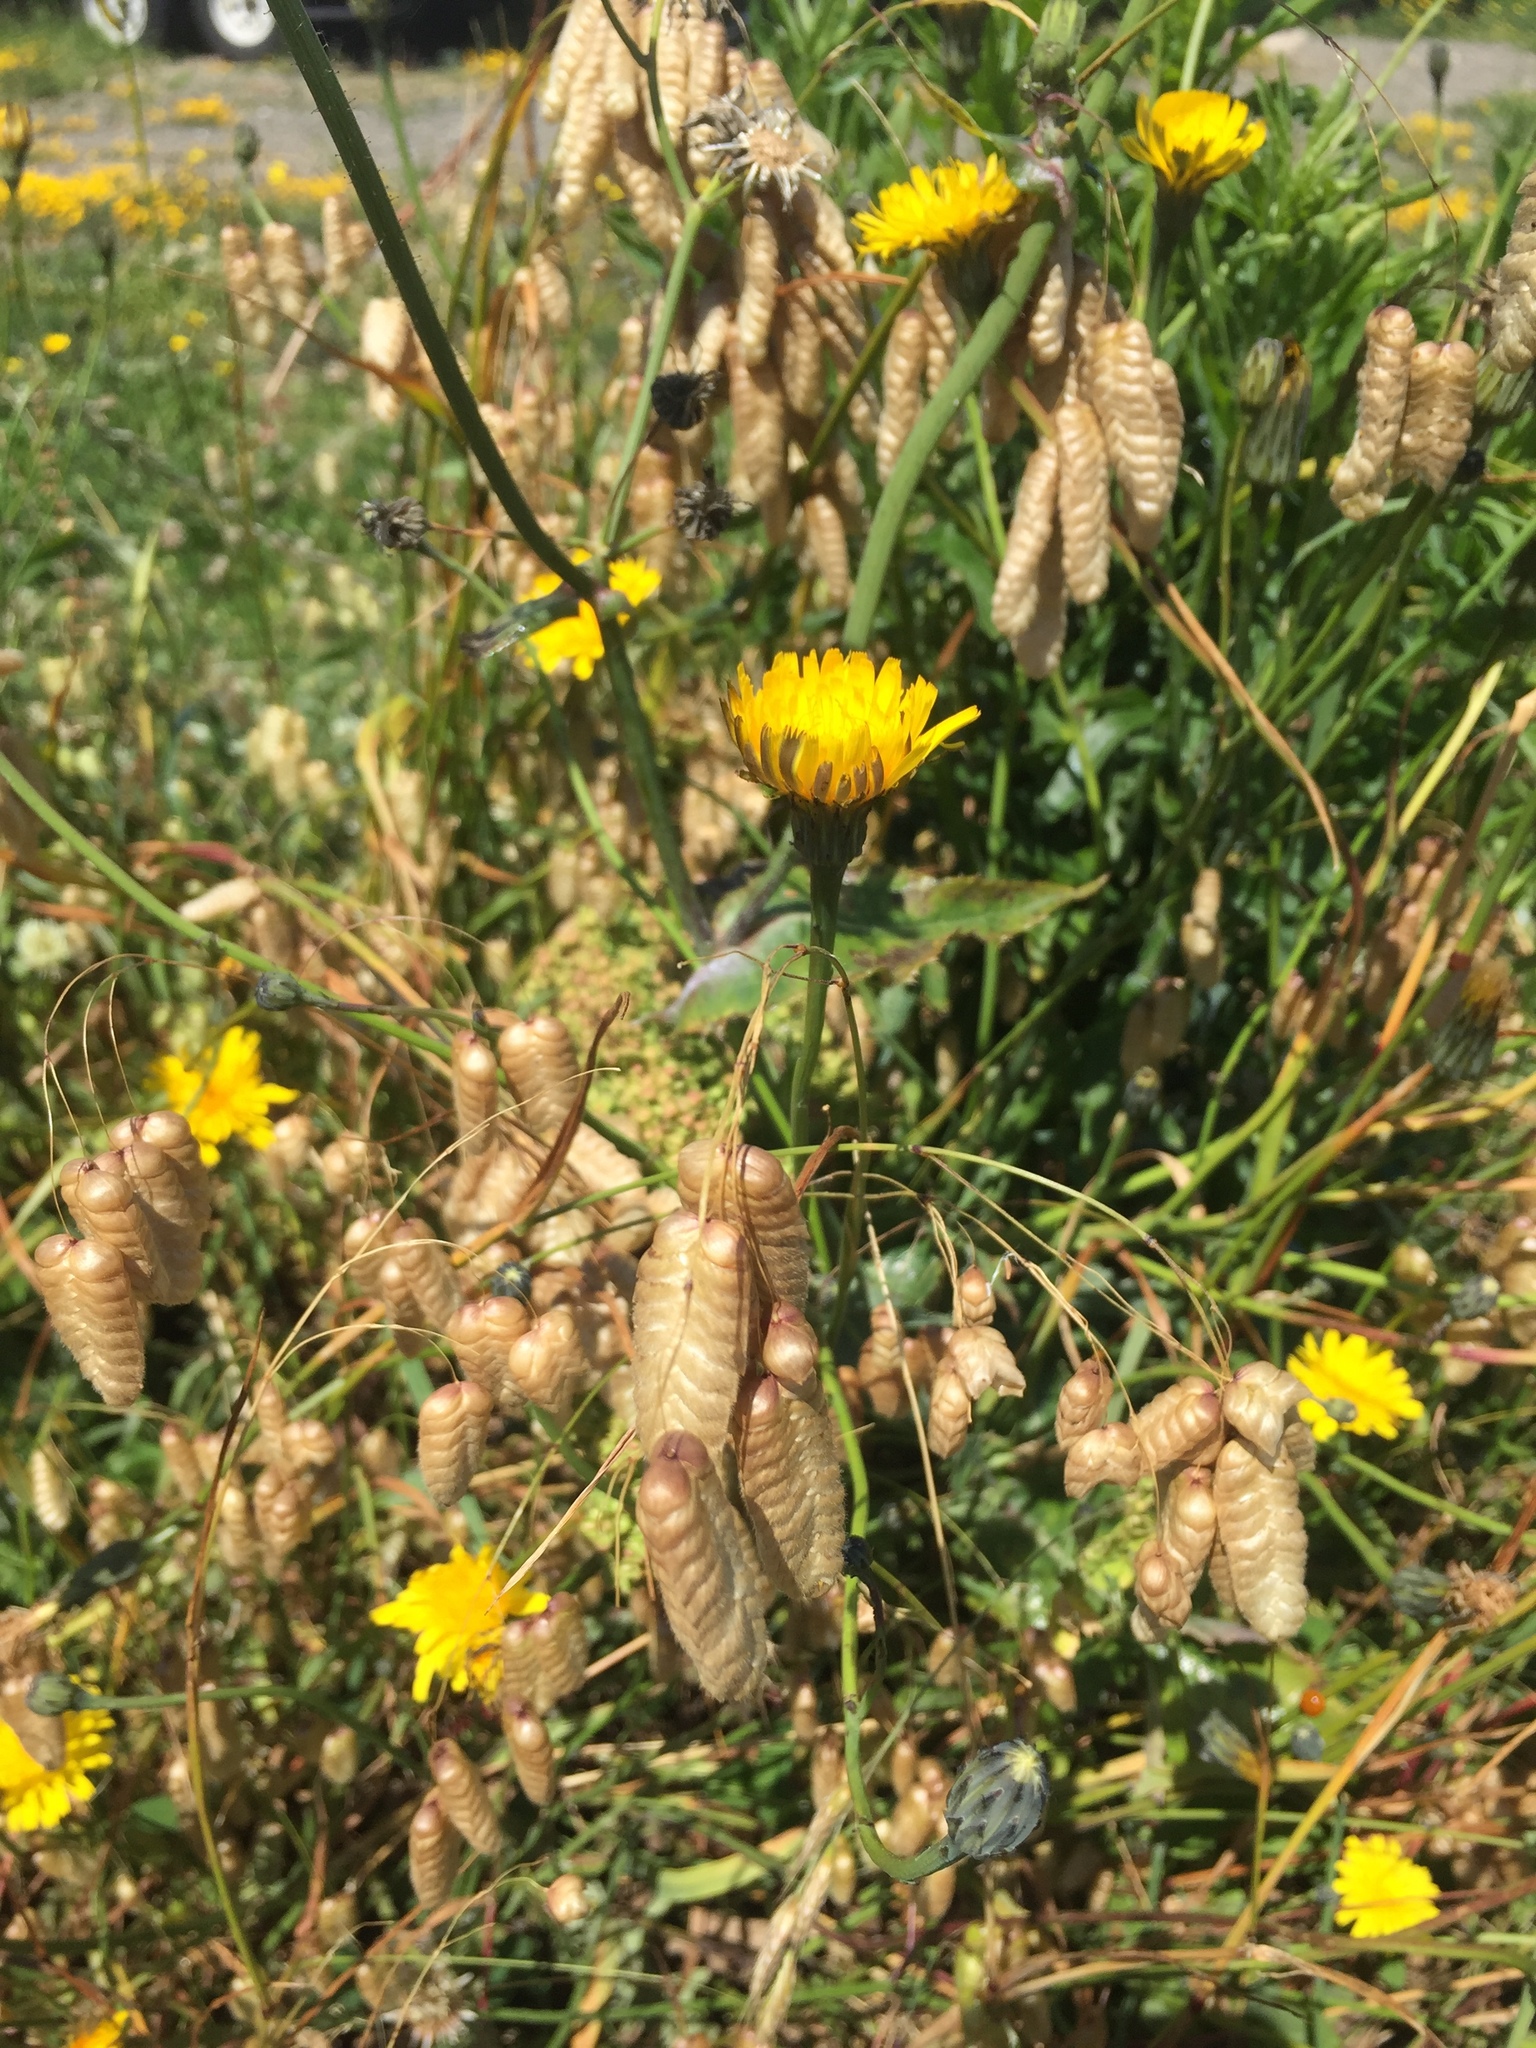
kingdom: Plantae
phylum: Tracheophyta
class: Liliopsida
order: Poales
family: Poaceae
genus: Briza
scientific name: Briza maxima
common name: Big quakinggrass
